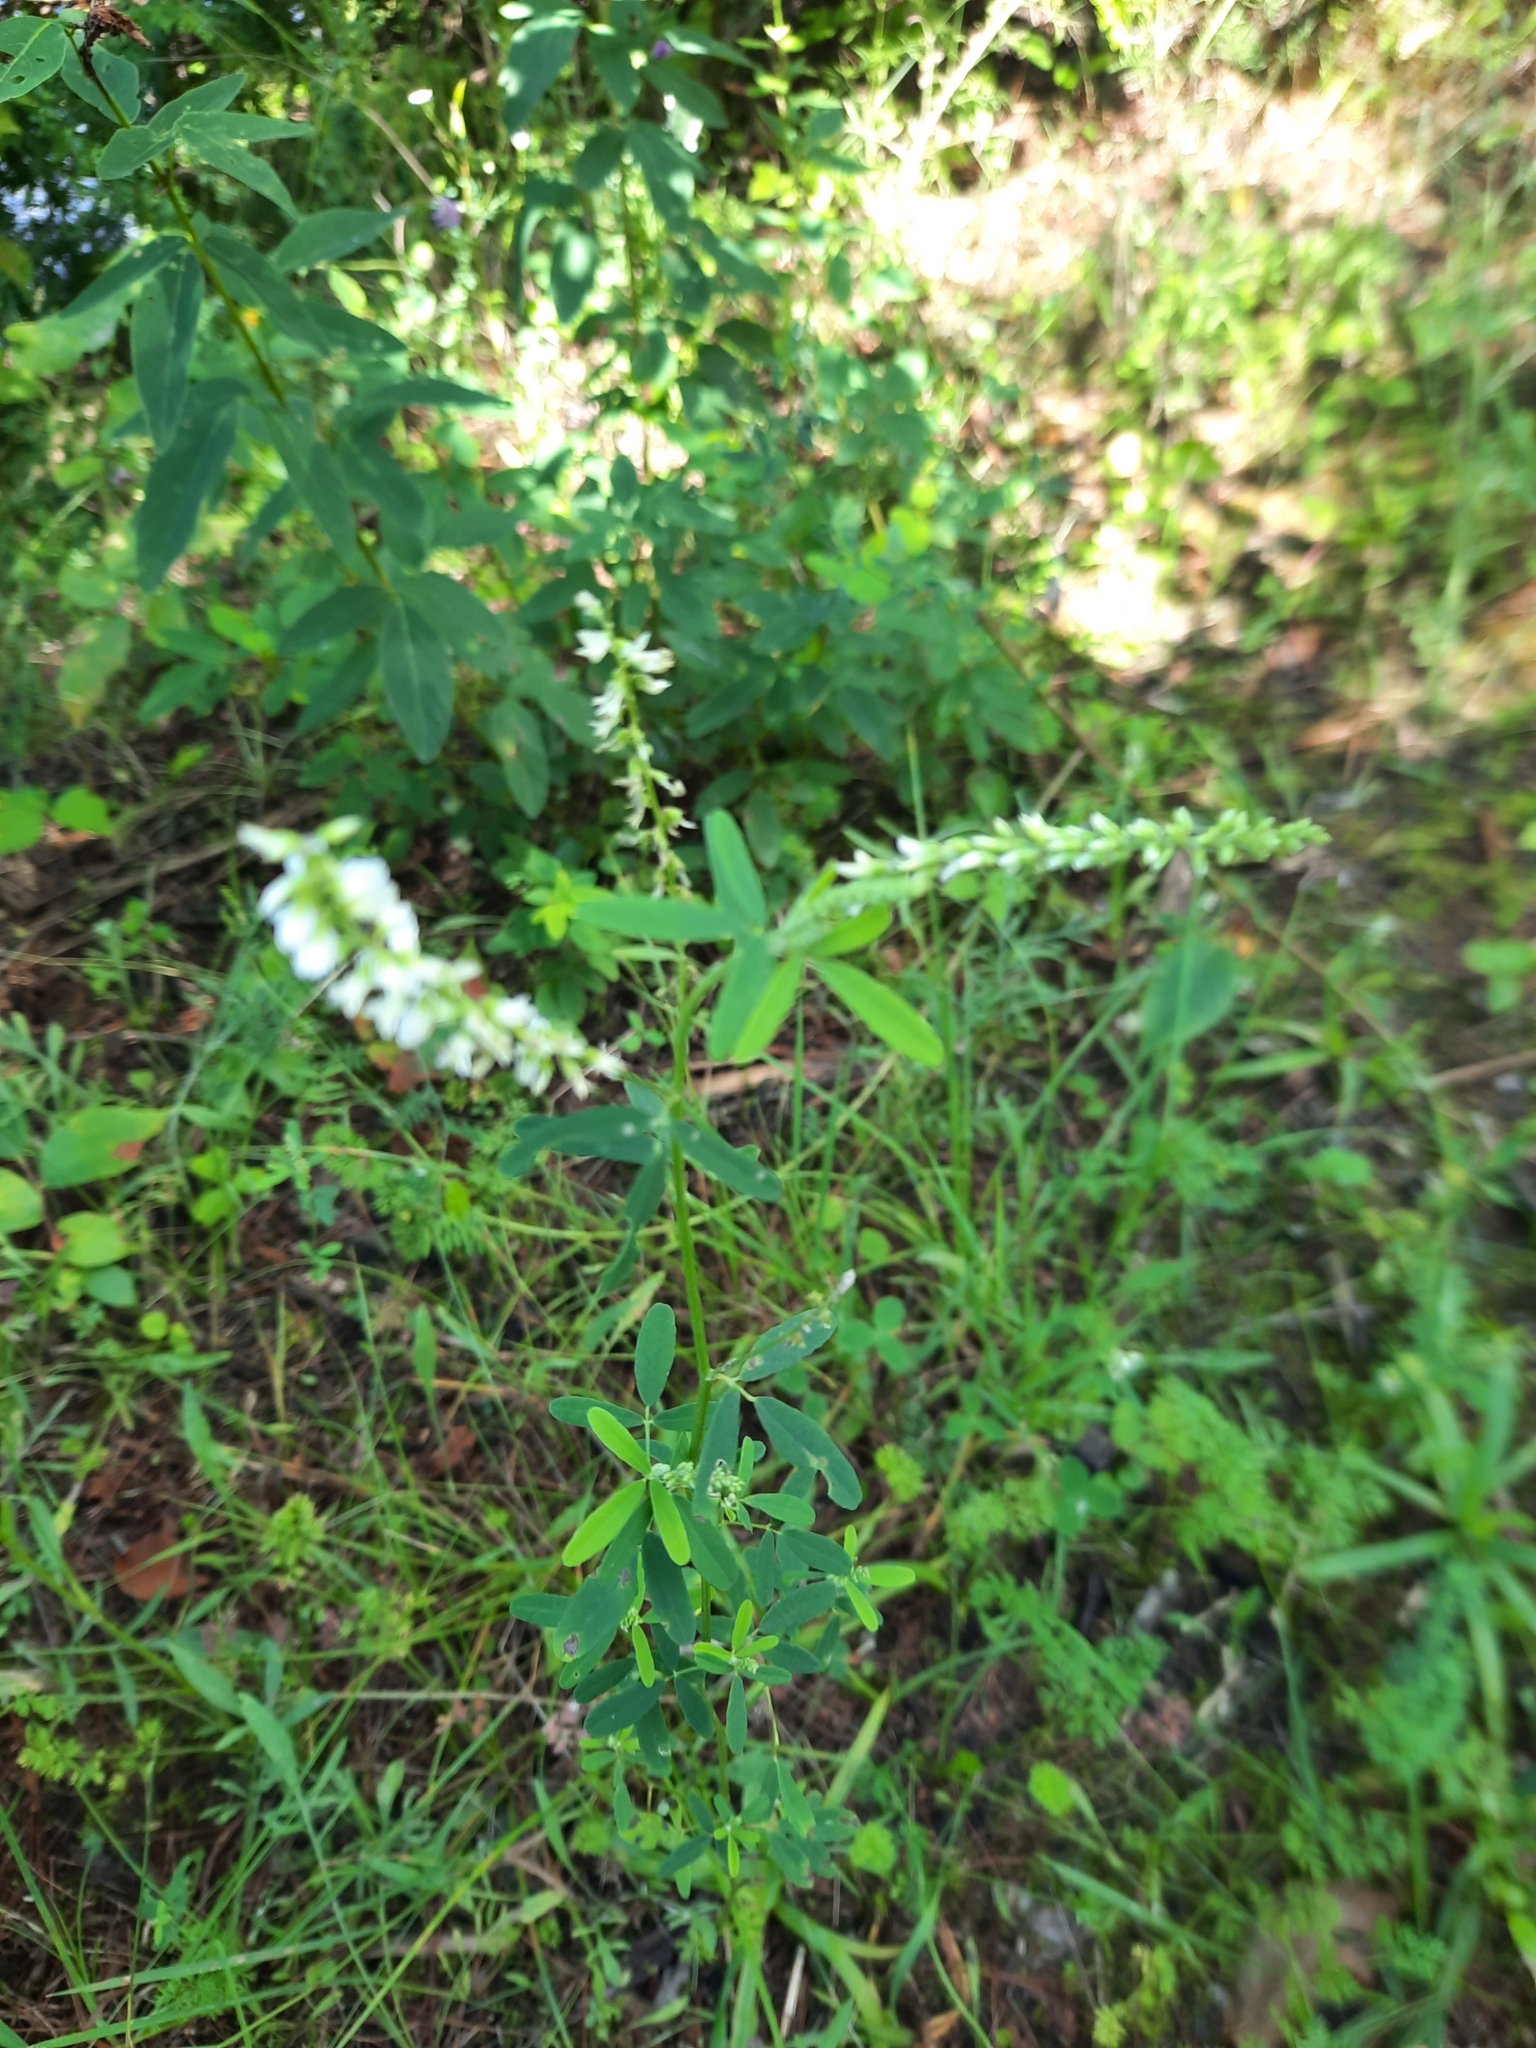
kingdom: Plantae
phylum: Tracheophyta
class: Magnoliopsida
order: Fabales
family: Fabaceae
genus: Melilotus
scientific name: Melilotus albus
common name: White melilot
